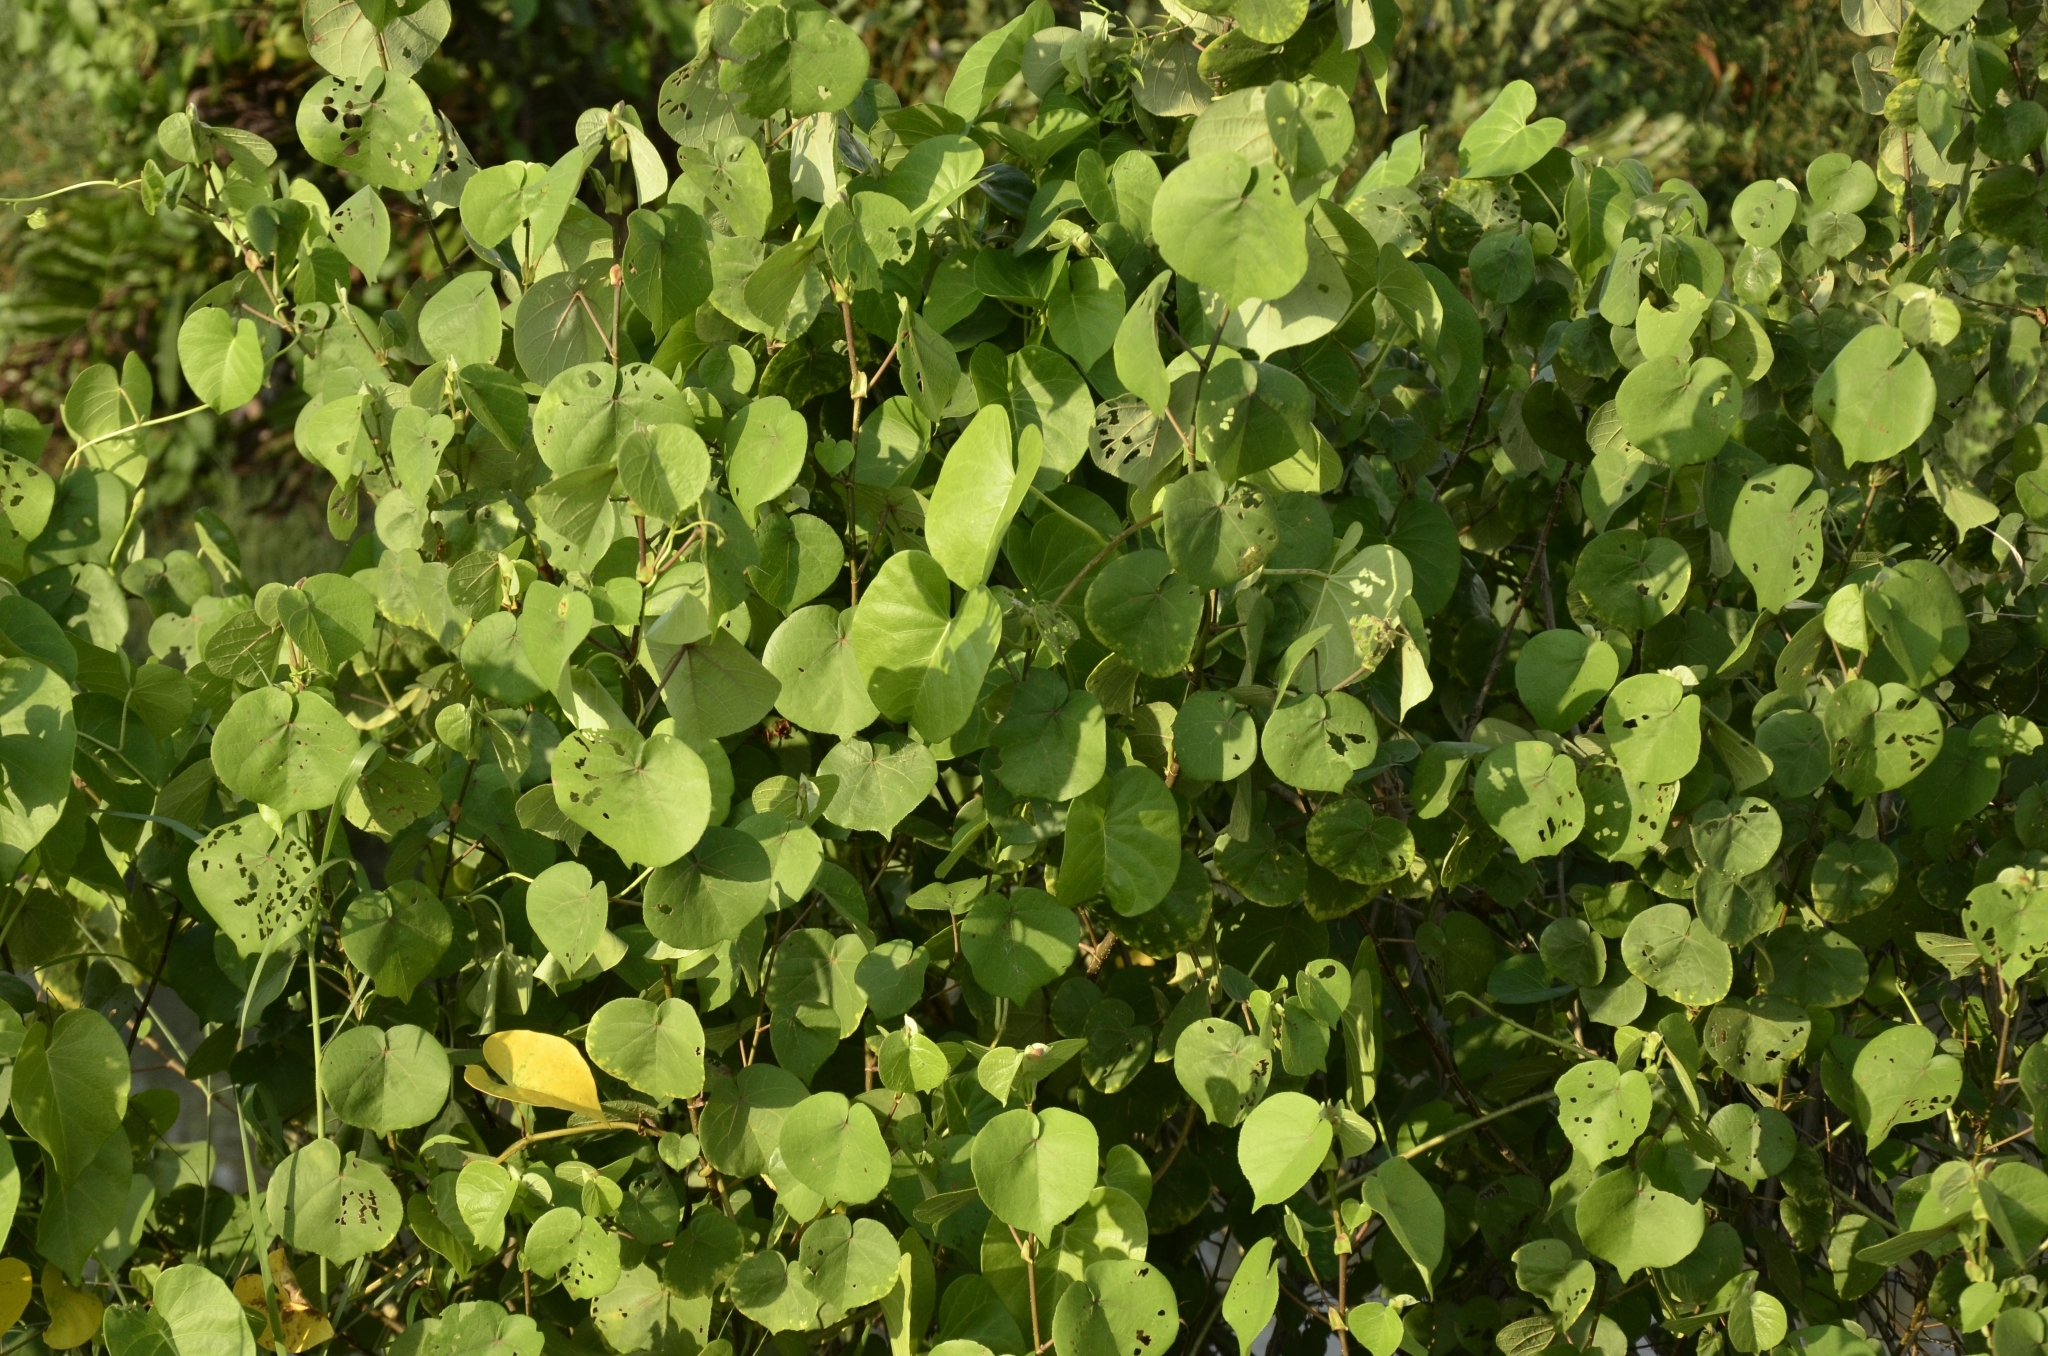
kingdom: Plantae
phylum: Tracheophyta
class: Magnoliopsida
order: Malvales
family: Malvaceae
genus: Talipariti
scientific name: Talipariti tiliaceum
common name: Sea hibiscus
